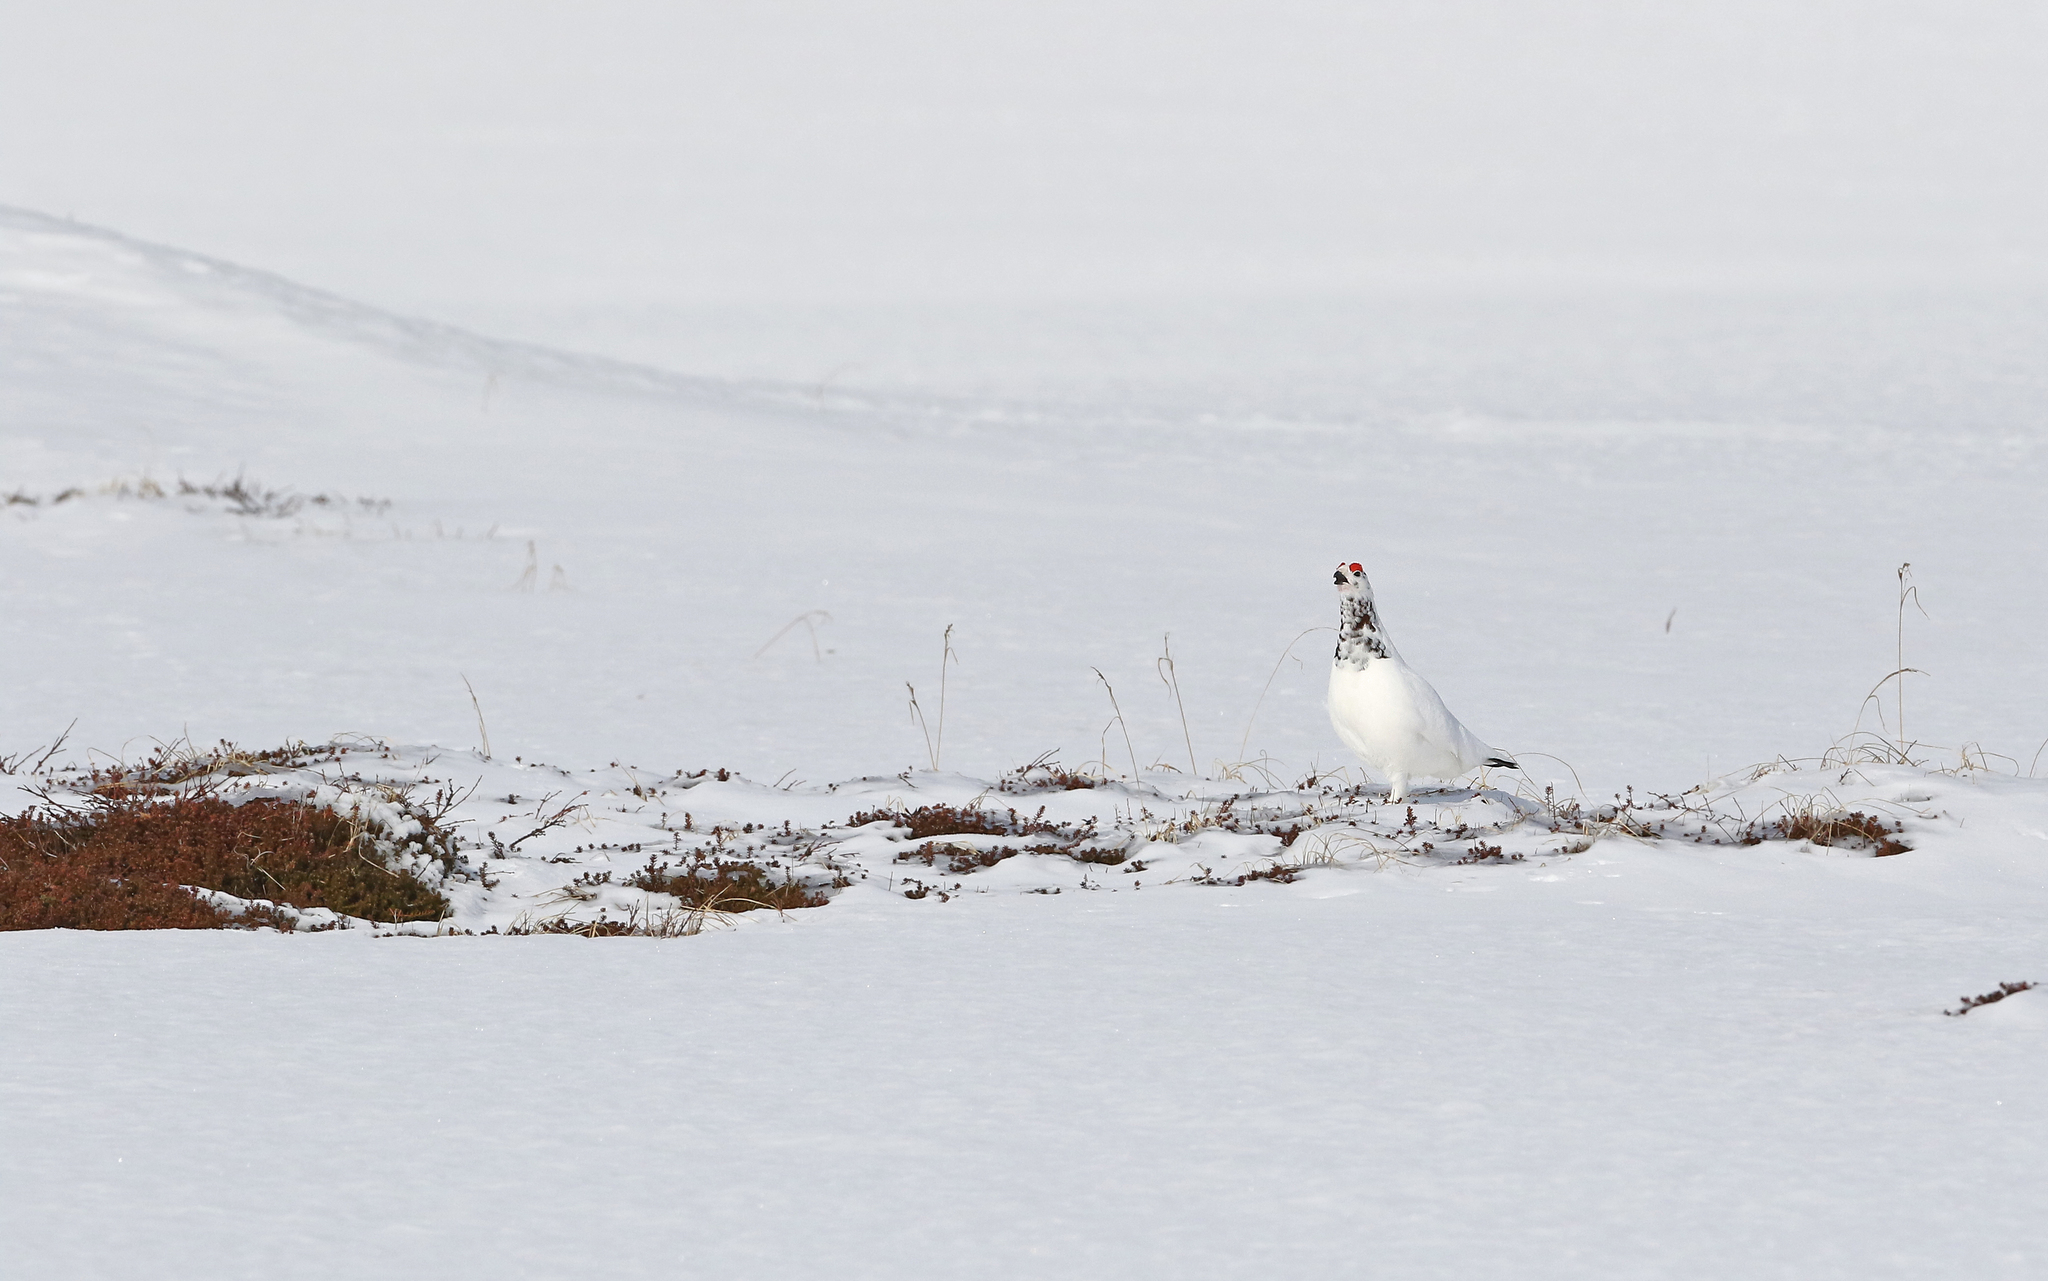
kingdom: Animalia
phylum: Chordata
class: Aves
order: Galliformes
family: Phasianidae
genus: Lagopus
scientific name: Lagopus lagopus
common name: Willow ptarmigan
